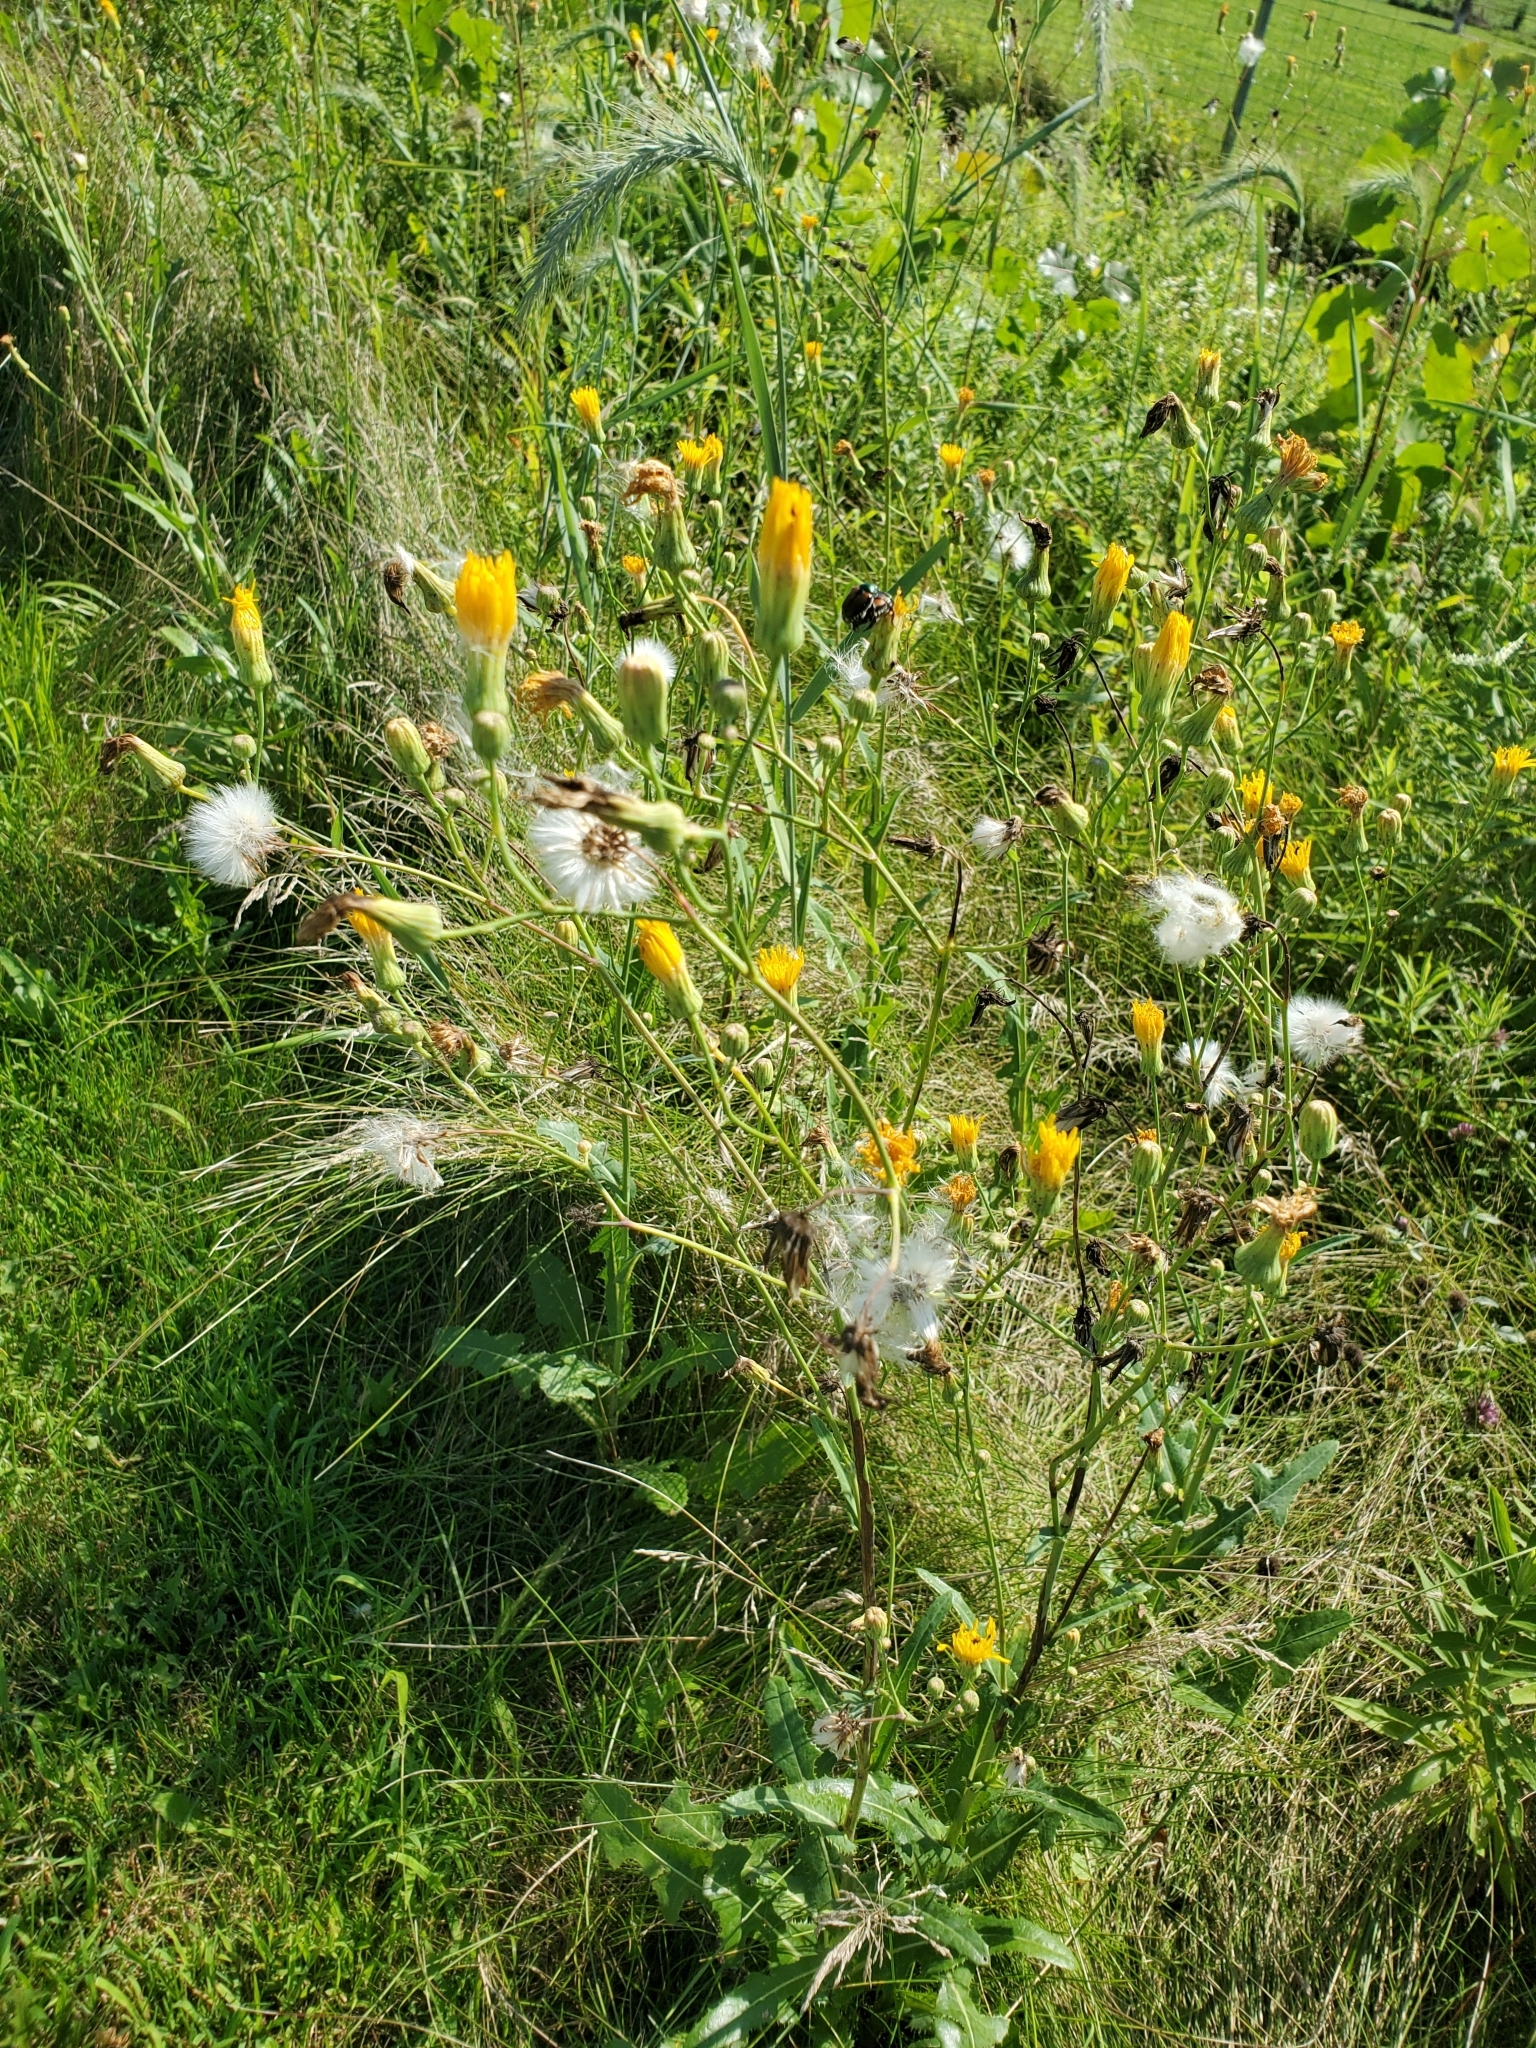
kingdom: Plantae
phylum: Tracheophyta
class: Magnoliopsida
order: Asterales
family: Asteraceae
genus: Sonchus
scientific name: Sonchus arvensis
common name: Perennial sow-thistle
